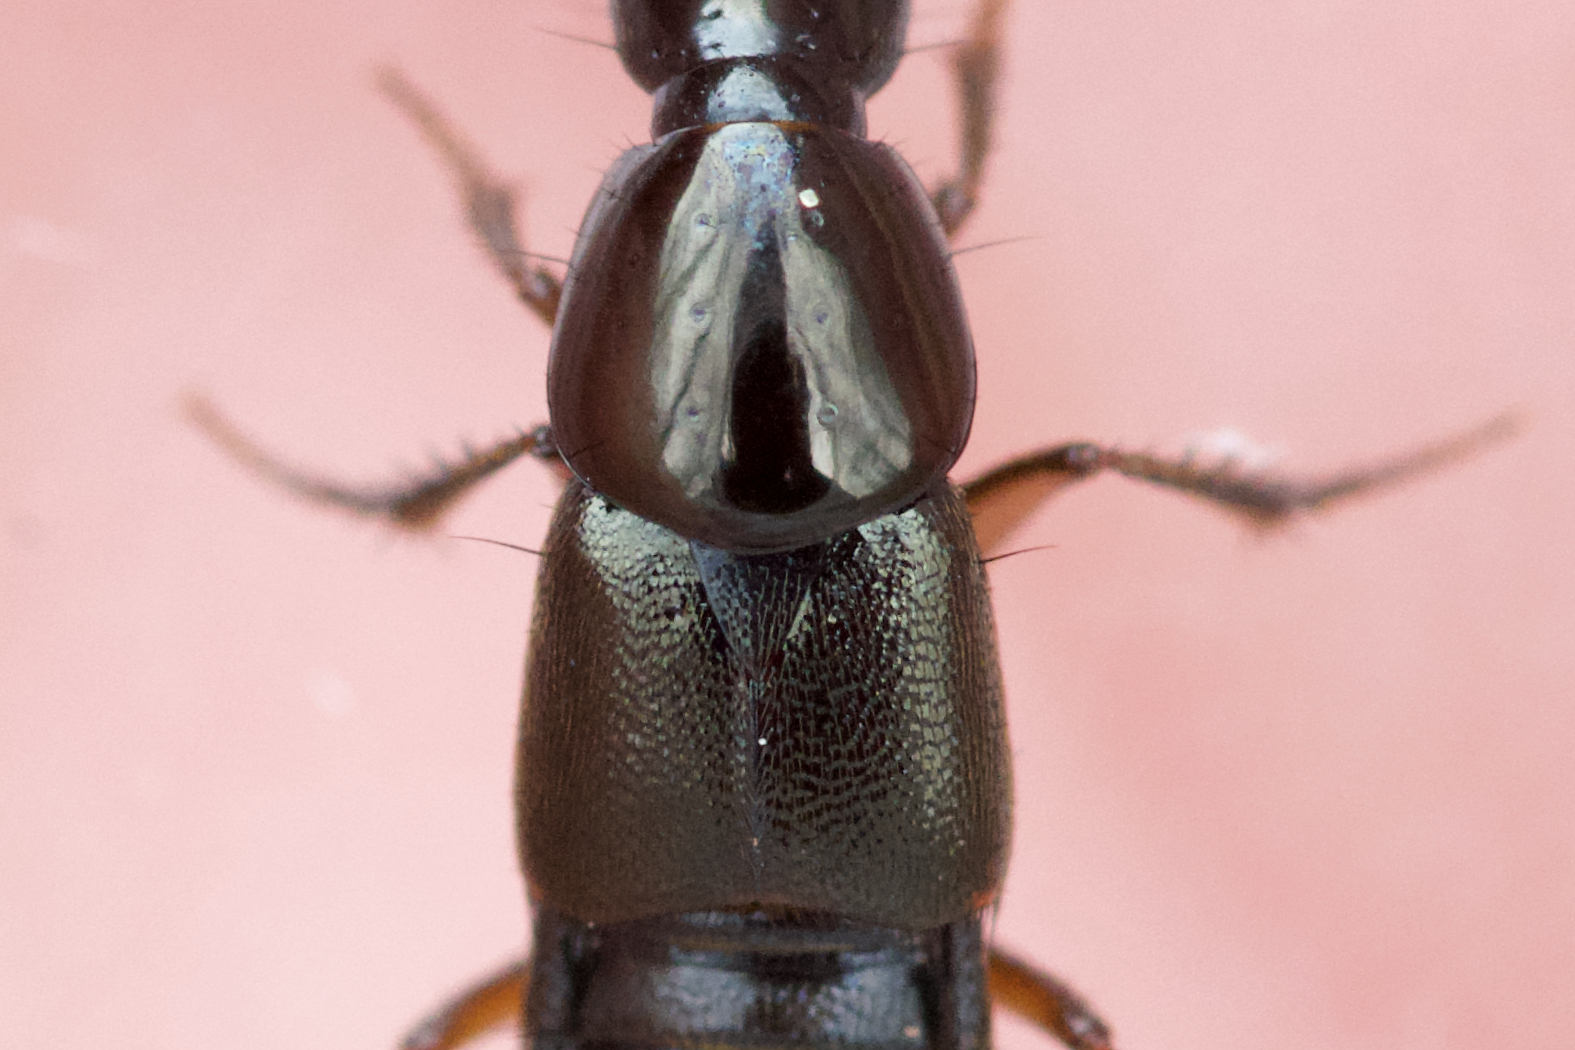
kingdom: Animalia
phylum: Arthropoda
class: Insecta
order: Coleoptera
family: Staphylinidae
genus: Philonthus
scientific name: Philonthus asper
